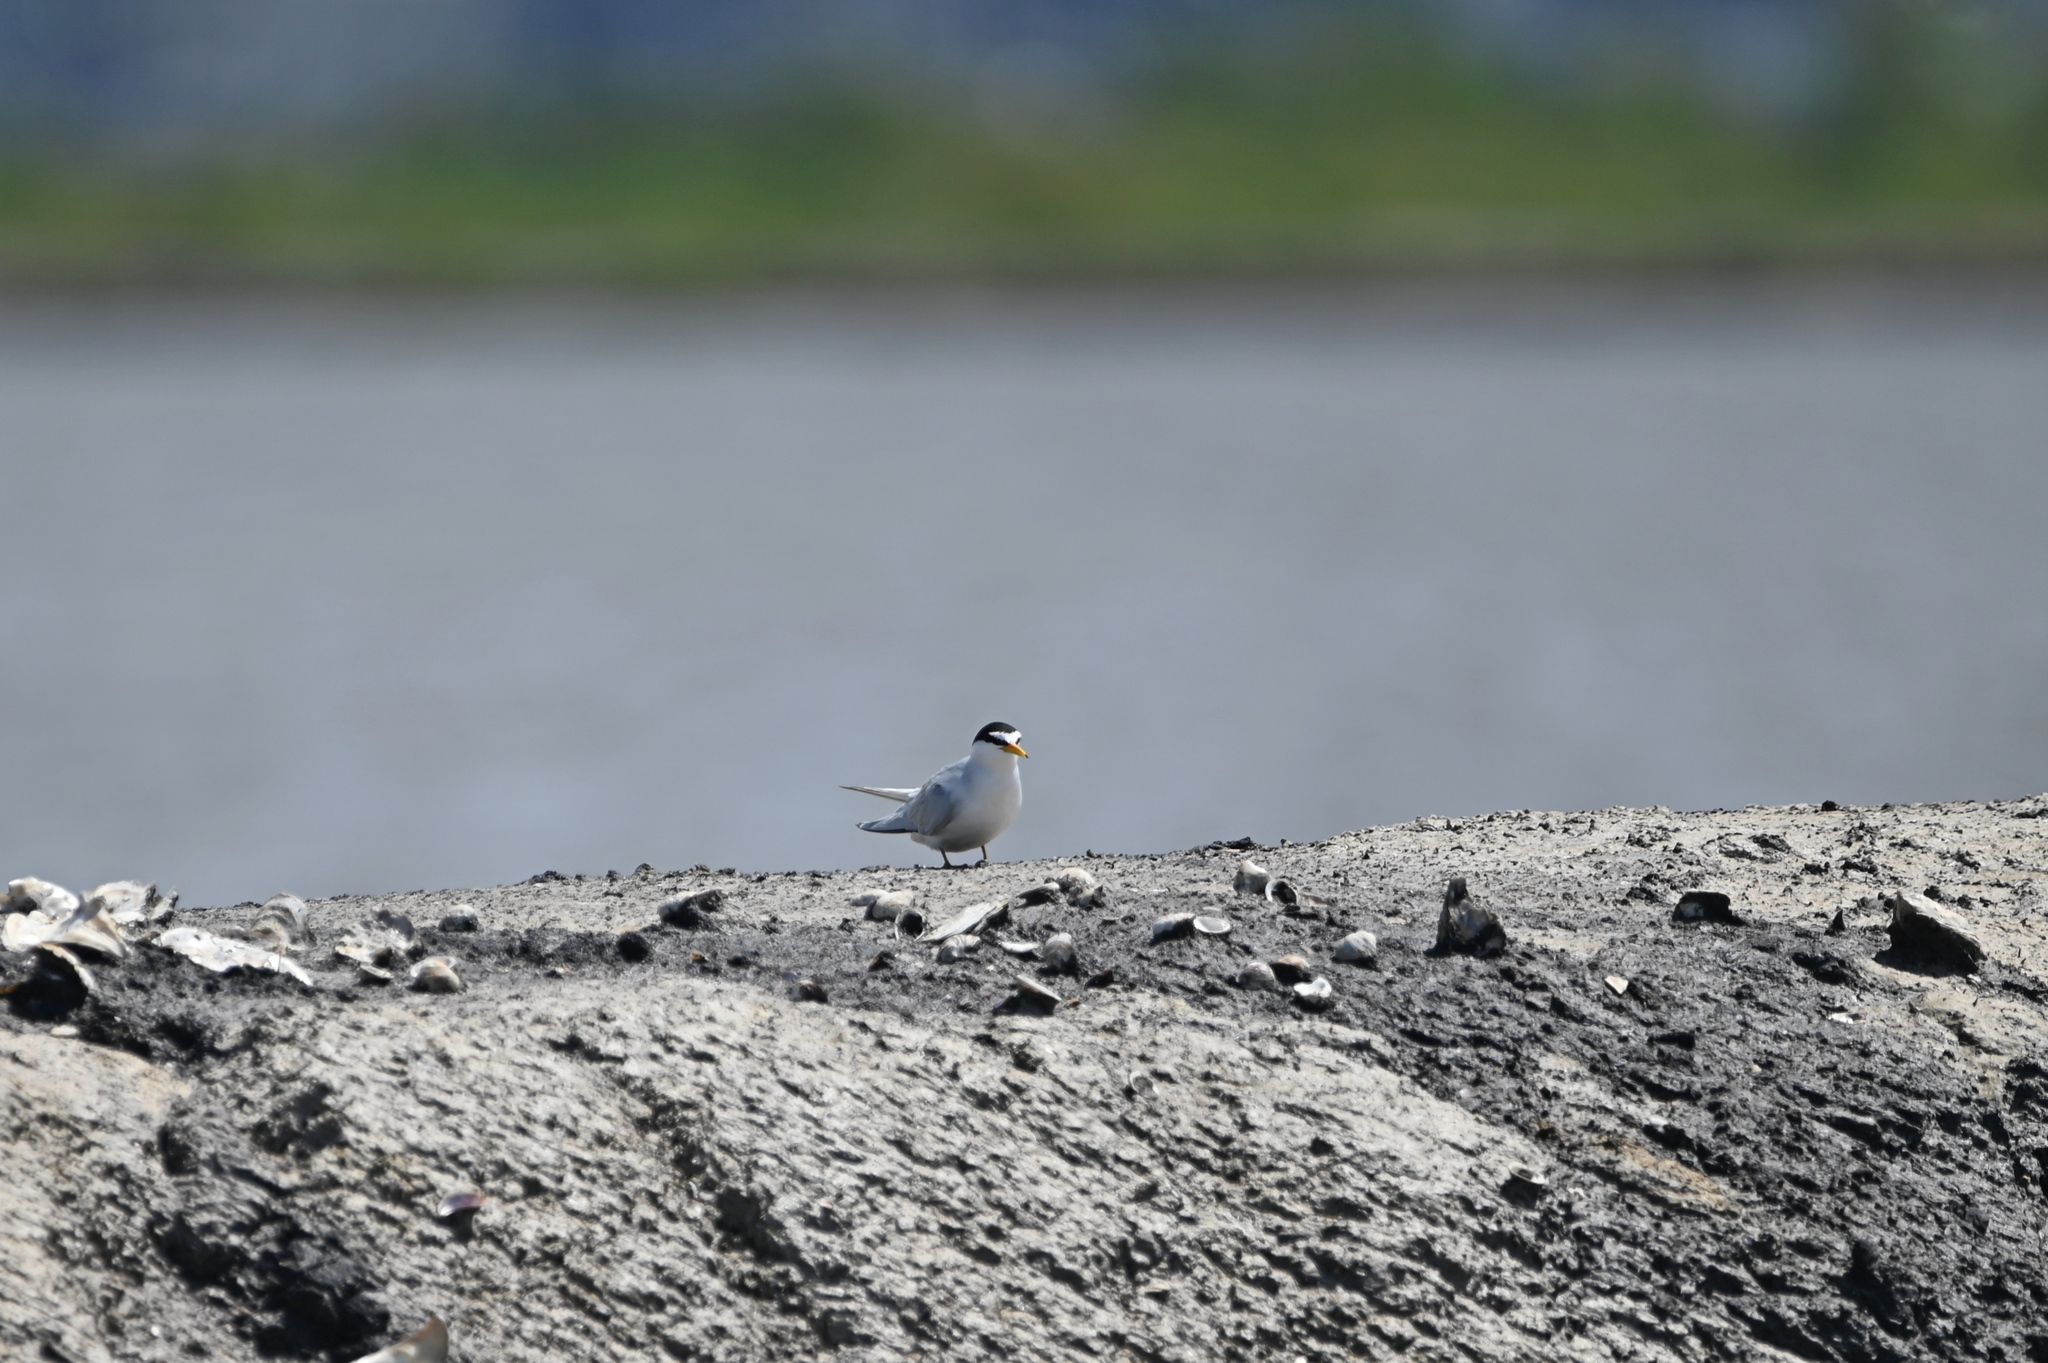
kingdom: Animalia
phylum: Chordata
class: Aves
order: Charadriiformes
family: Laridae
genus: Sternula
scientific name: Sternula antillarum
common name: Least tern
